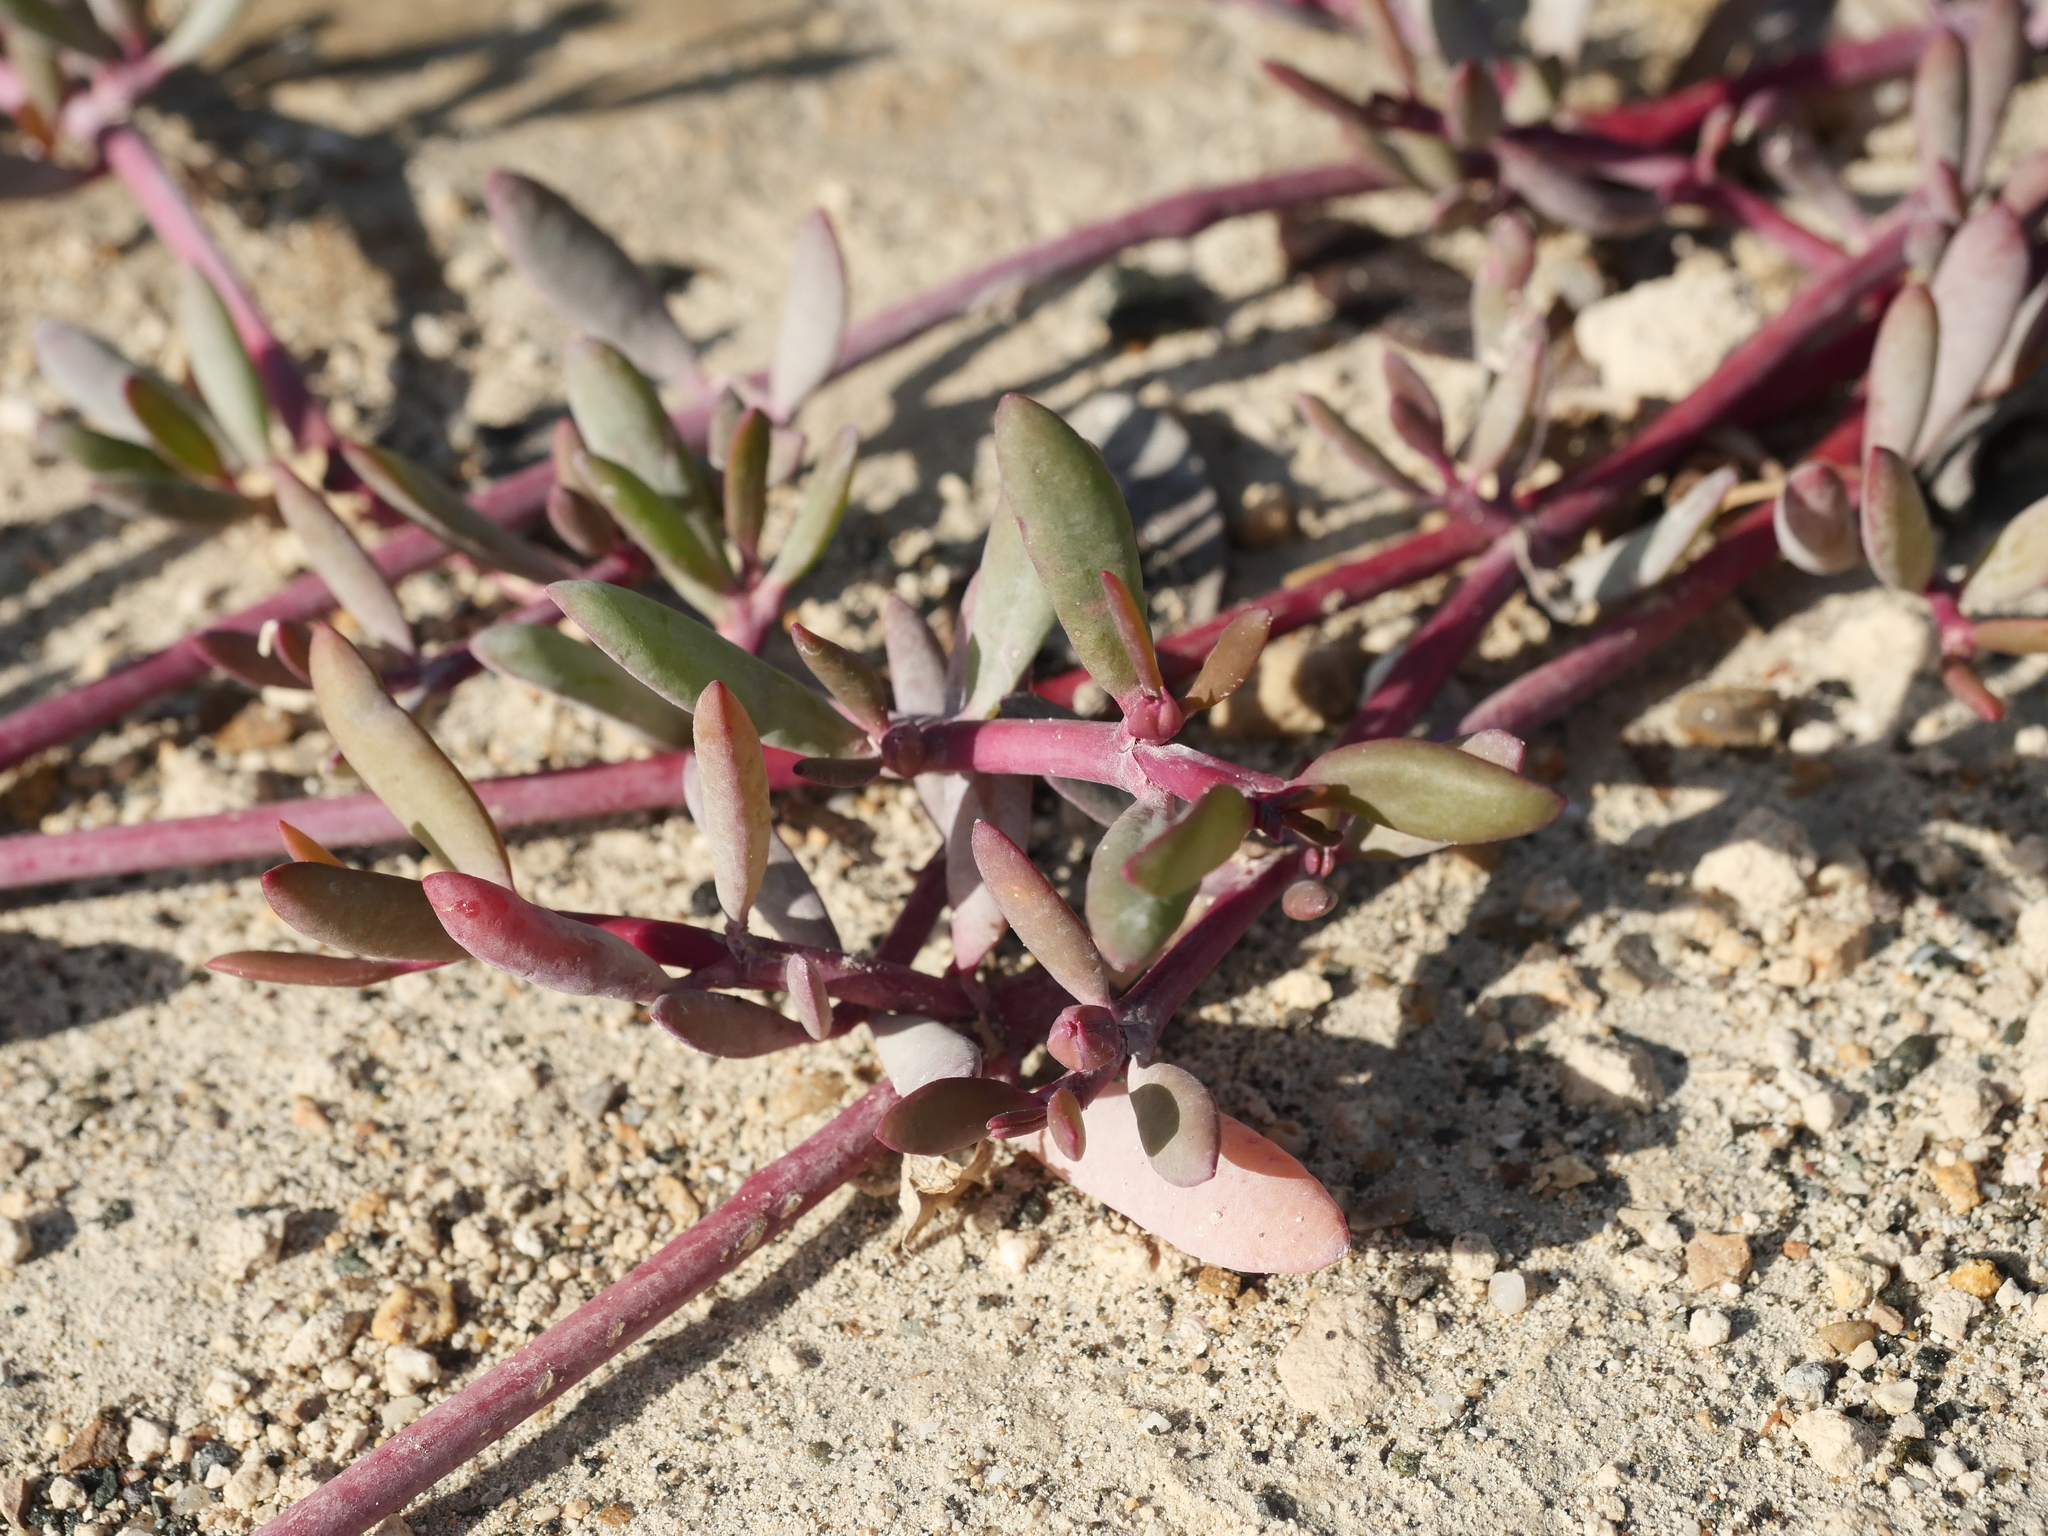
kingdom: Plantae
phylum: Tracheophyta
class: Magnoliopsida
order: Caryophyllales
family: Aizoaceae
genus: Sesuvium
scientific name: Sesuvium portulacastrum
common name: Sea-purslane
